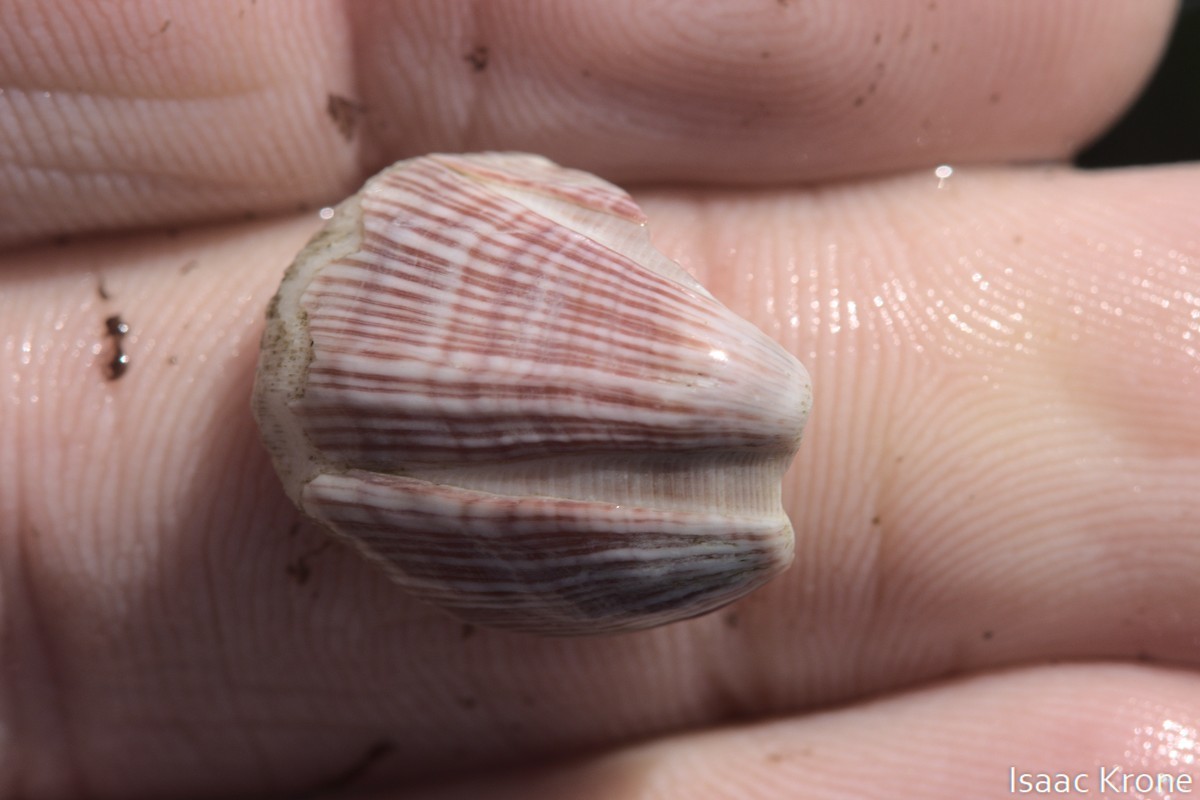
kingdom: Animalia
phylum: Arthropoda
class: Maxillopoda
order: Sessilia
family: Balanidae
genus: Megabalanus
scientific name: Megabalanus californicus
